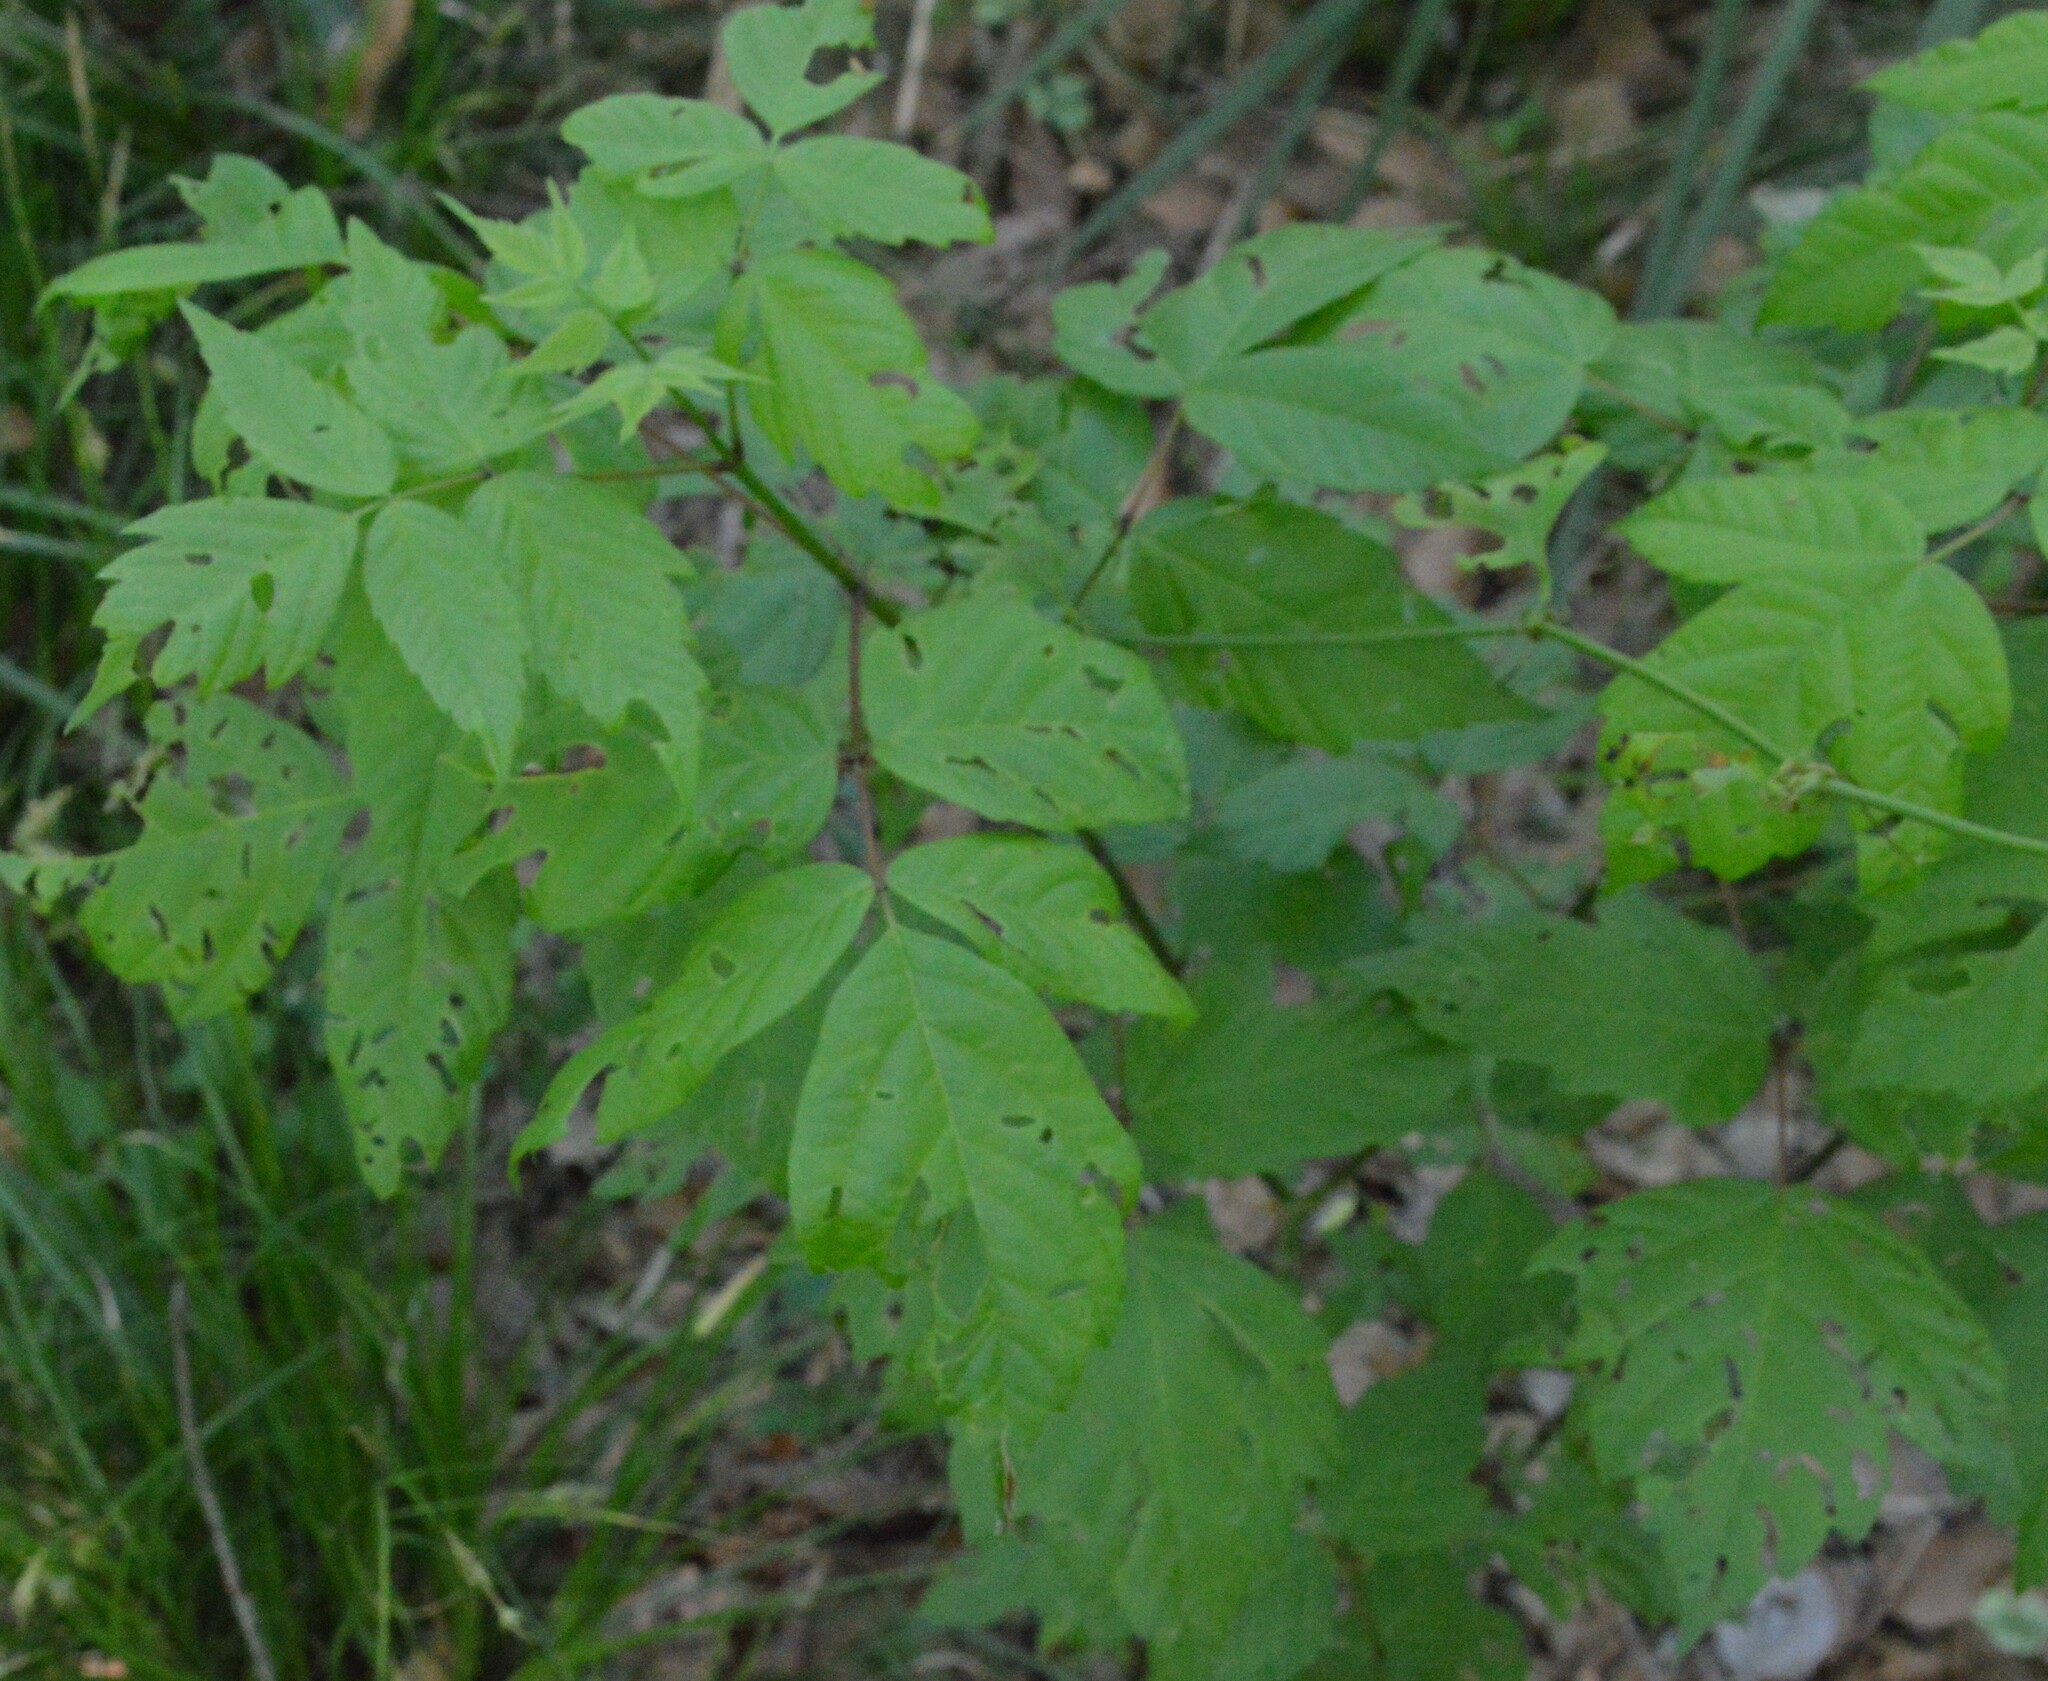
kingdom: Plantae
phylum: Tracheophyta
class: Magnoliopsida
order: Sapindales
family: Sapindaceae
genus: Acer
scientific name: Acer negundo
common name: Ashleaf maple
